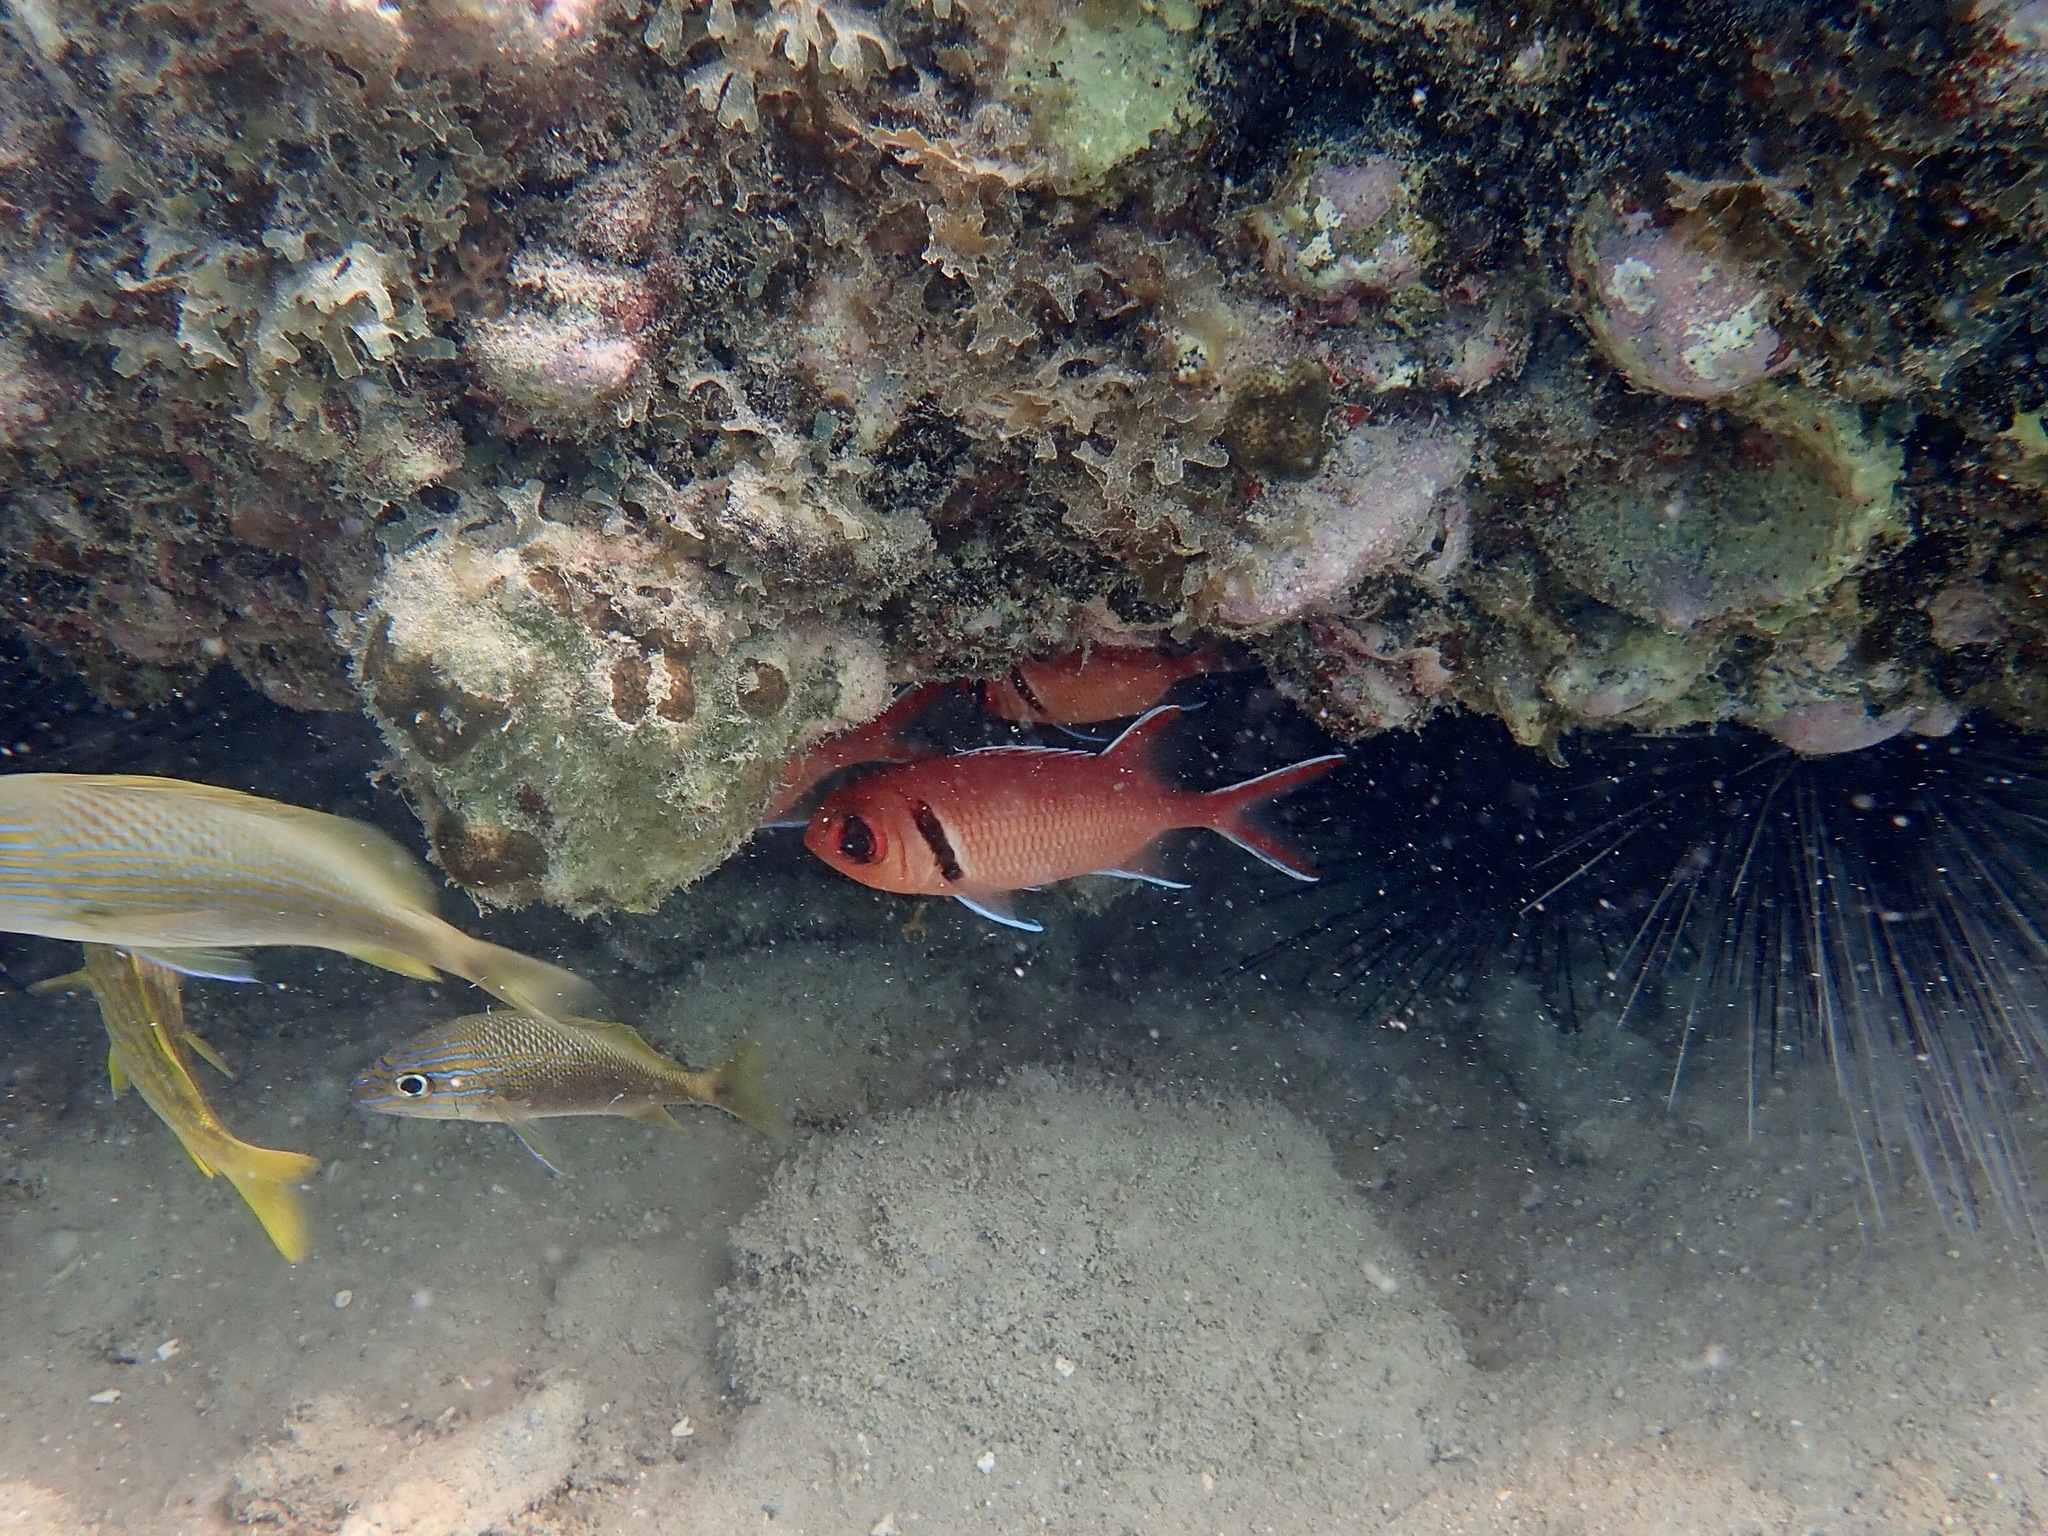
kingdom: Animalia
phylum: Chordata
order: Beryciformes
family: Holocentridae
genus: Myripristis
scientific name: Myripristis jacobus
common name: Blackbar soldierfish
